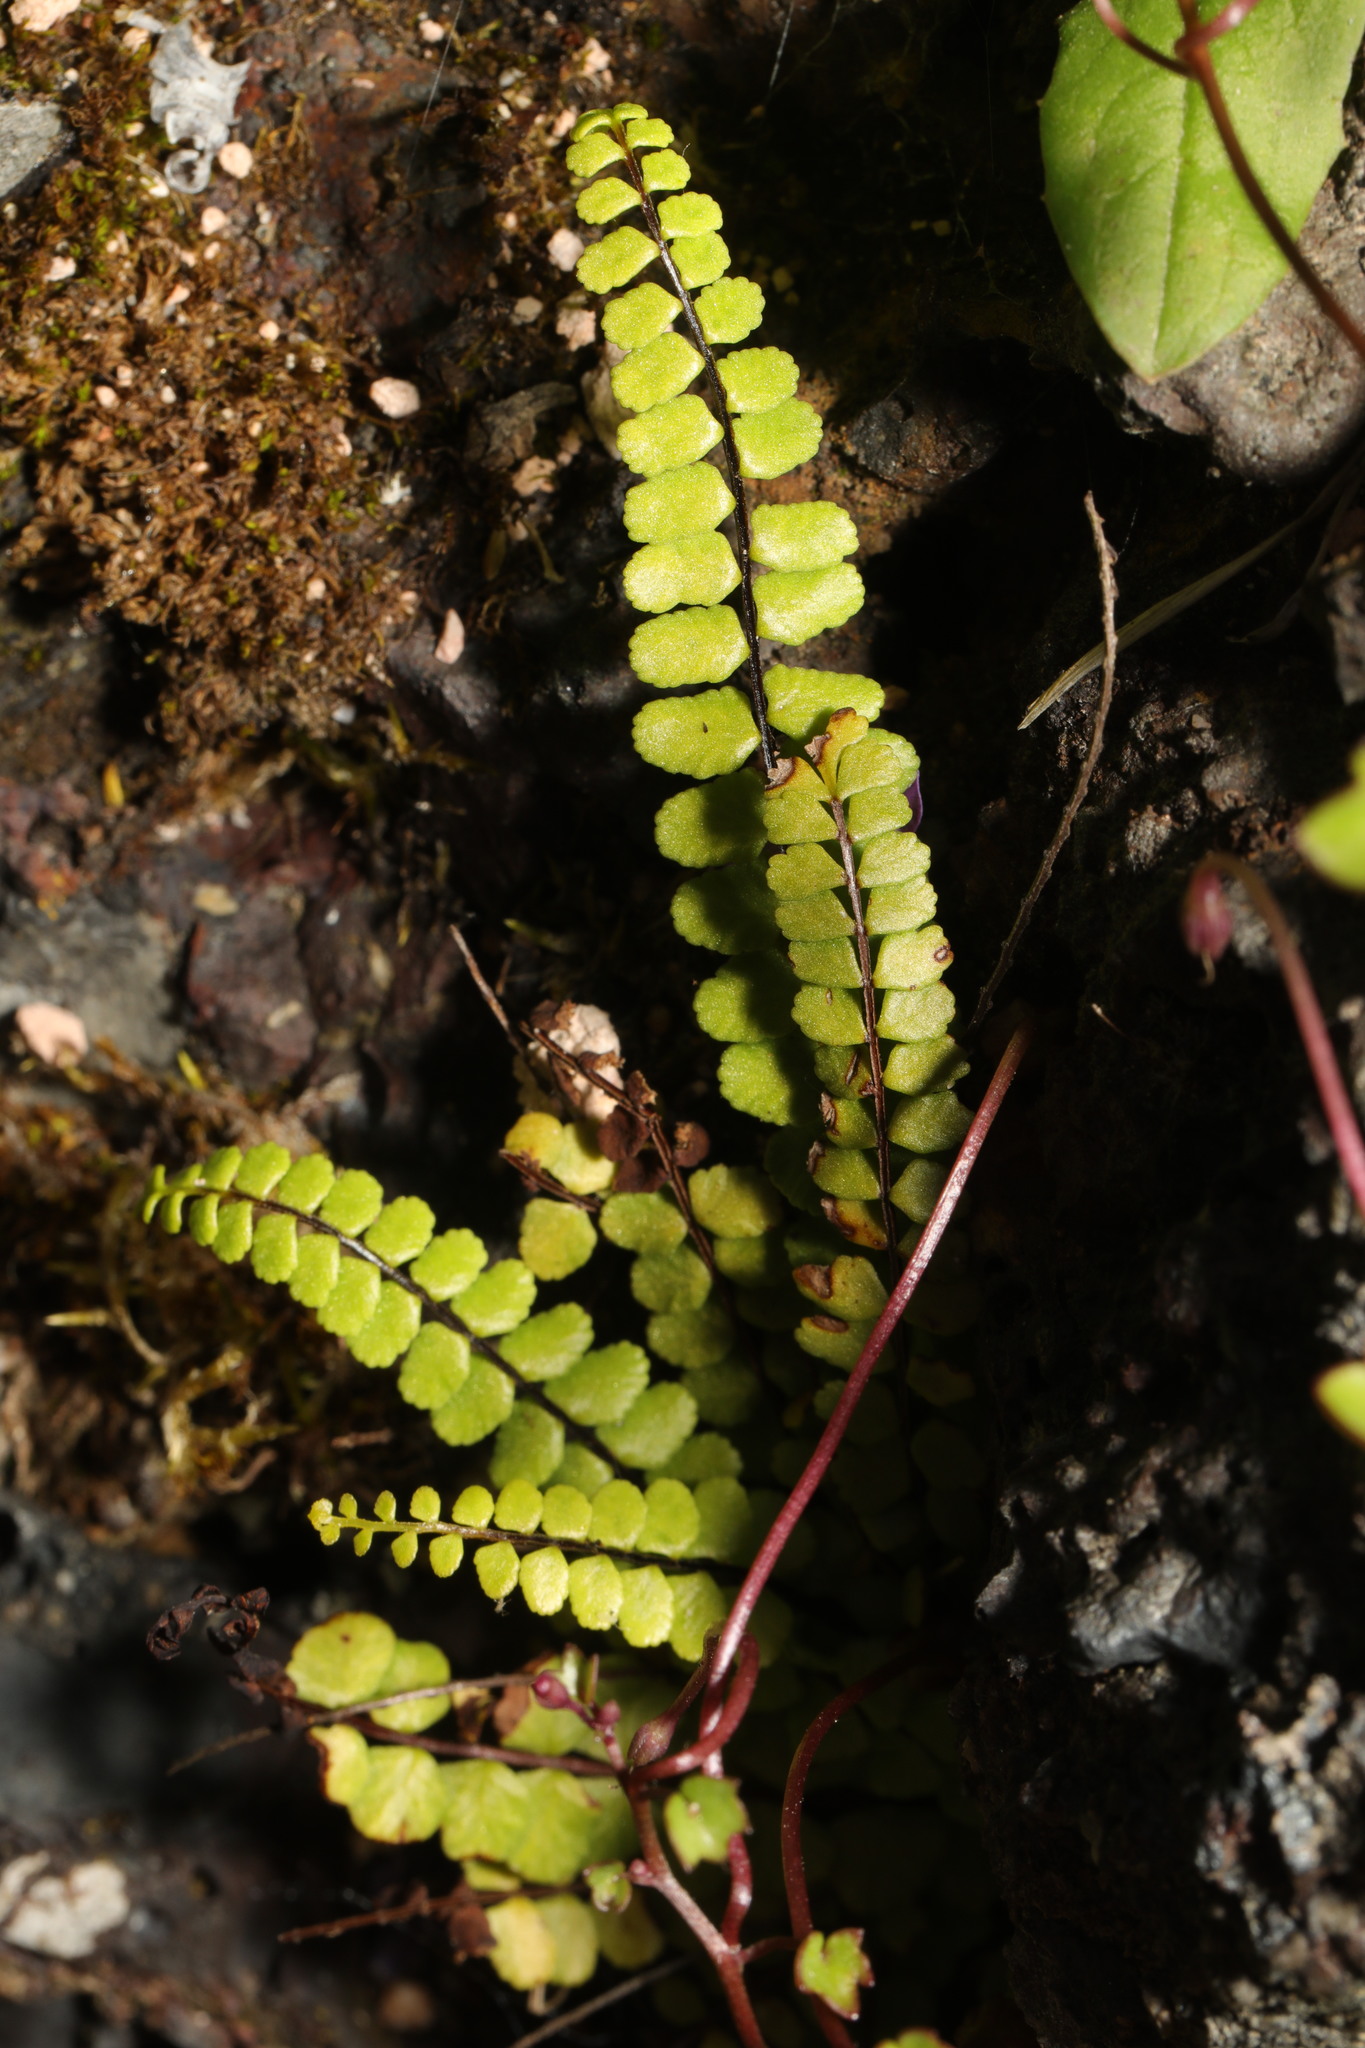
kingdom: Plantae
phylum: Tracheophyta
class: Polypodiopsida
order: Polypodiales
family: Aspleniaceae
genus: Asplenium
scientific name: Asplenium trichomanes
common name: Maidenhair spleenwort
